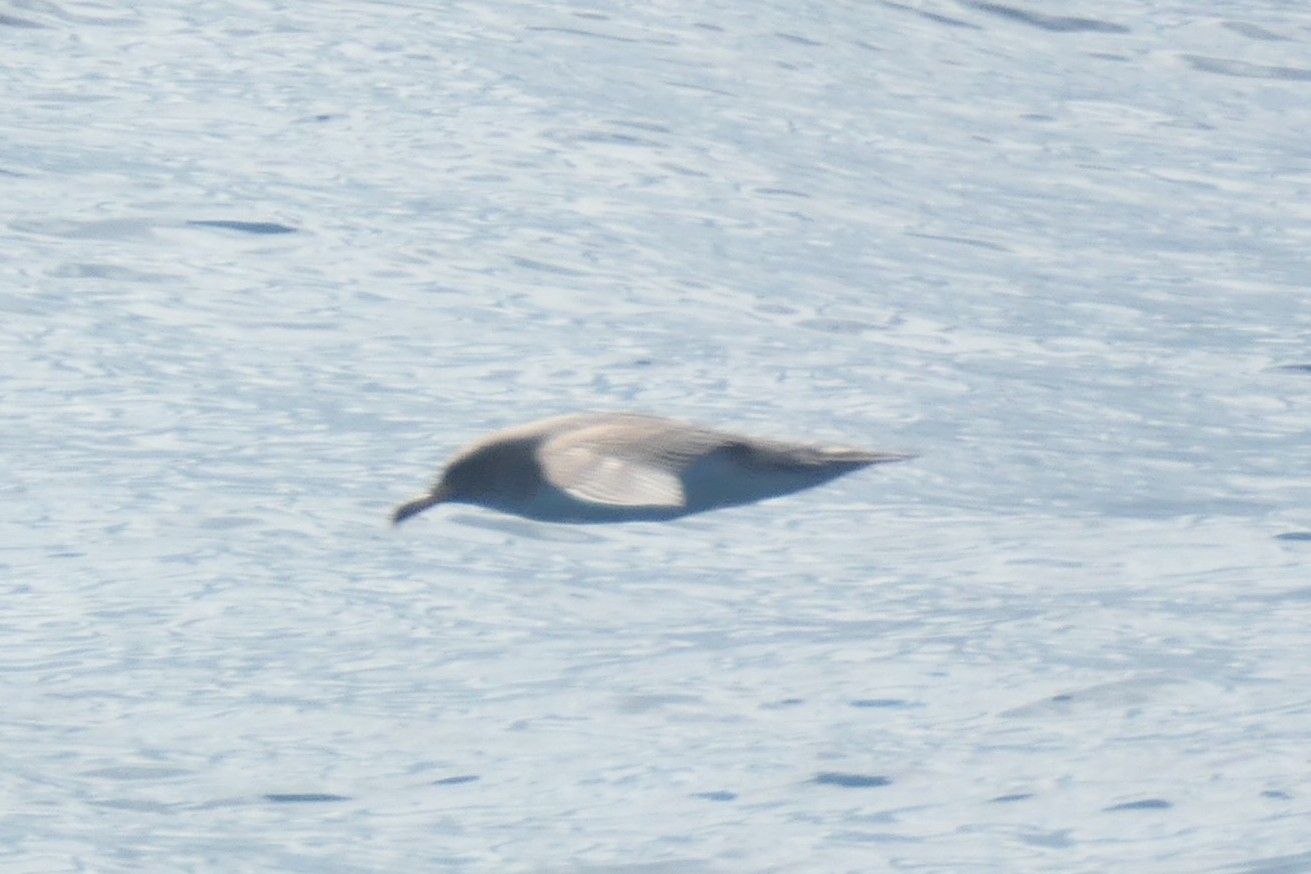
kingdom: Animalia
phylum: Chordata
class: Aves
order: Procellariiformes
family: Procellariidae
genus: Calonectris
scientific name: Calonectris diomedea
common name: Cory's shearwater
